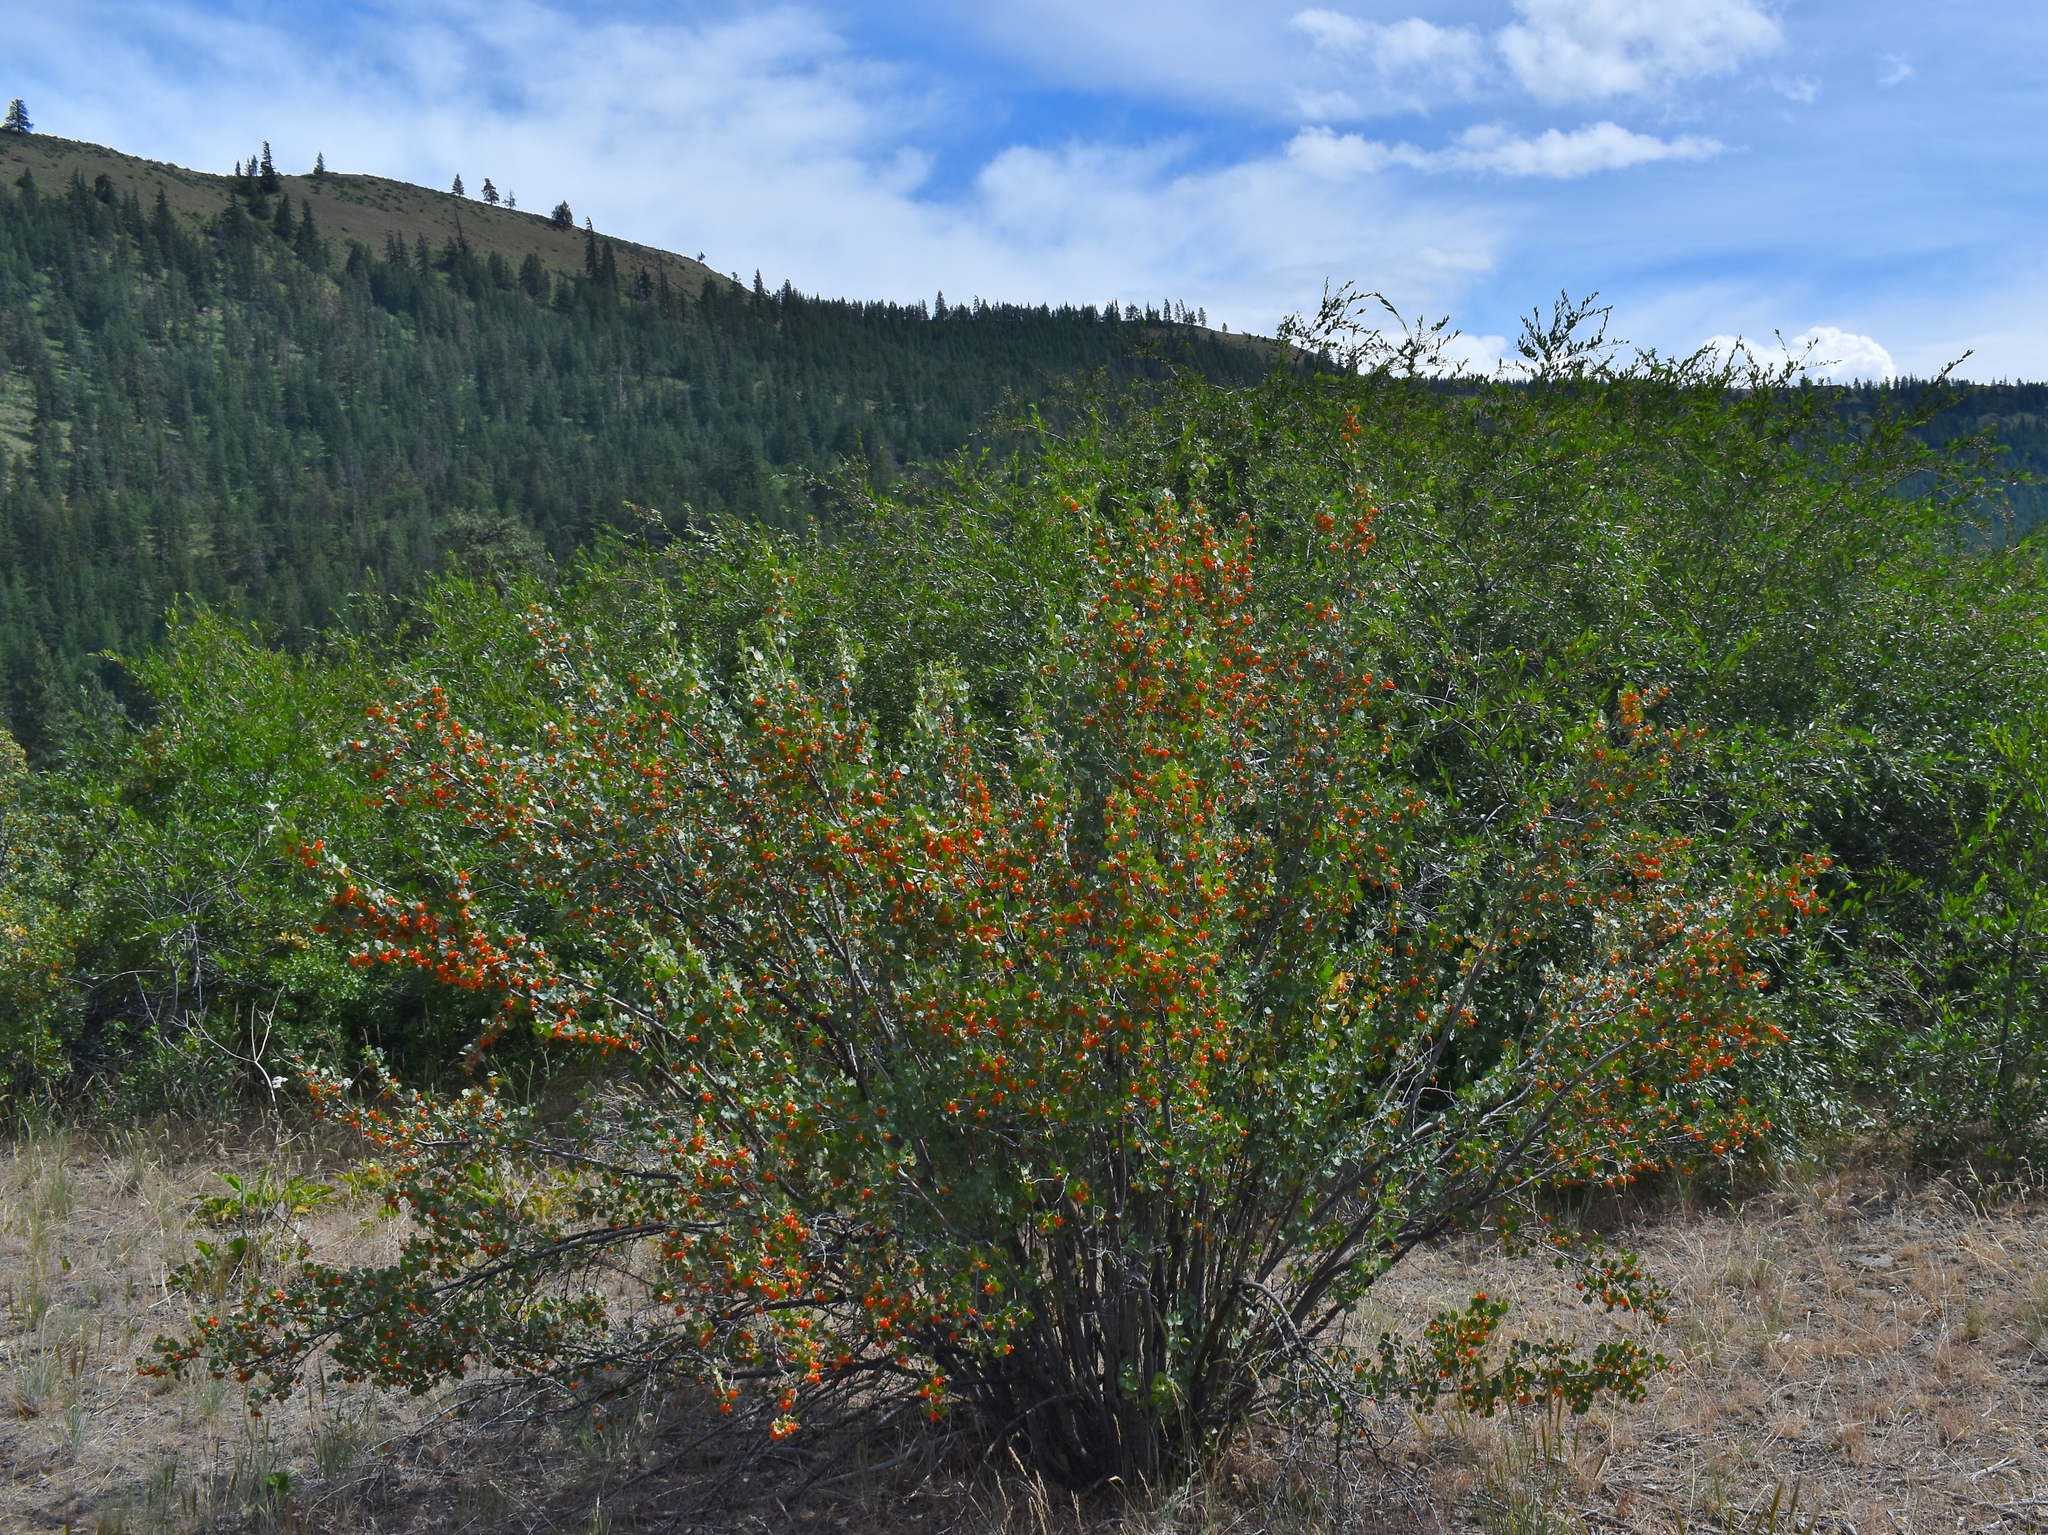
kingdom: Plantae
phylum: Tracheophyta
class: Magnoliopsida
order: Saxifragales
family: Grossulariaceae
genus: Ribes
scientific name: Ribes cereum
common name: Wax currant
